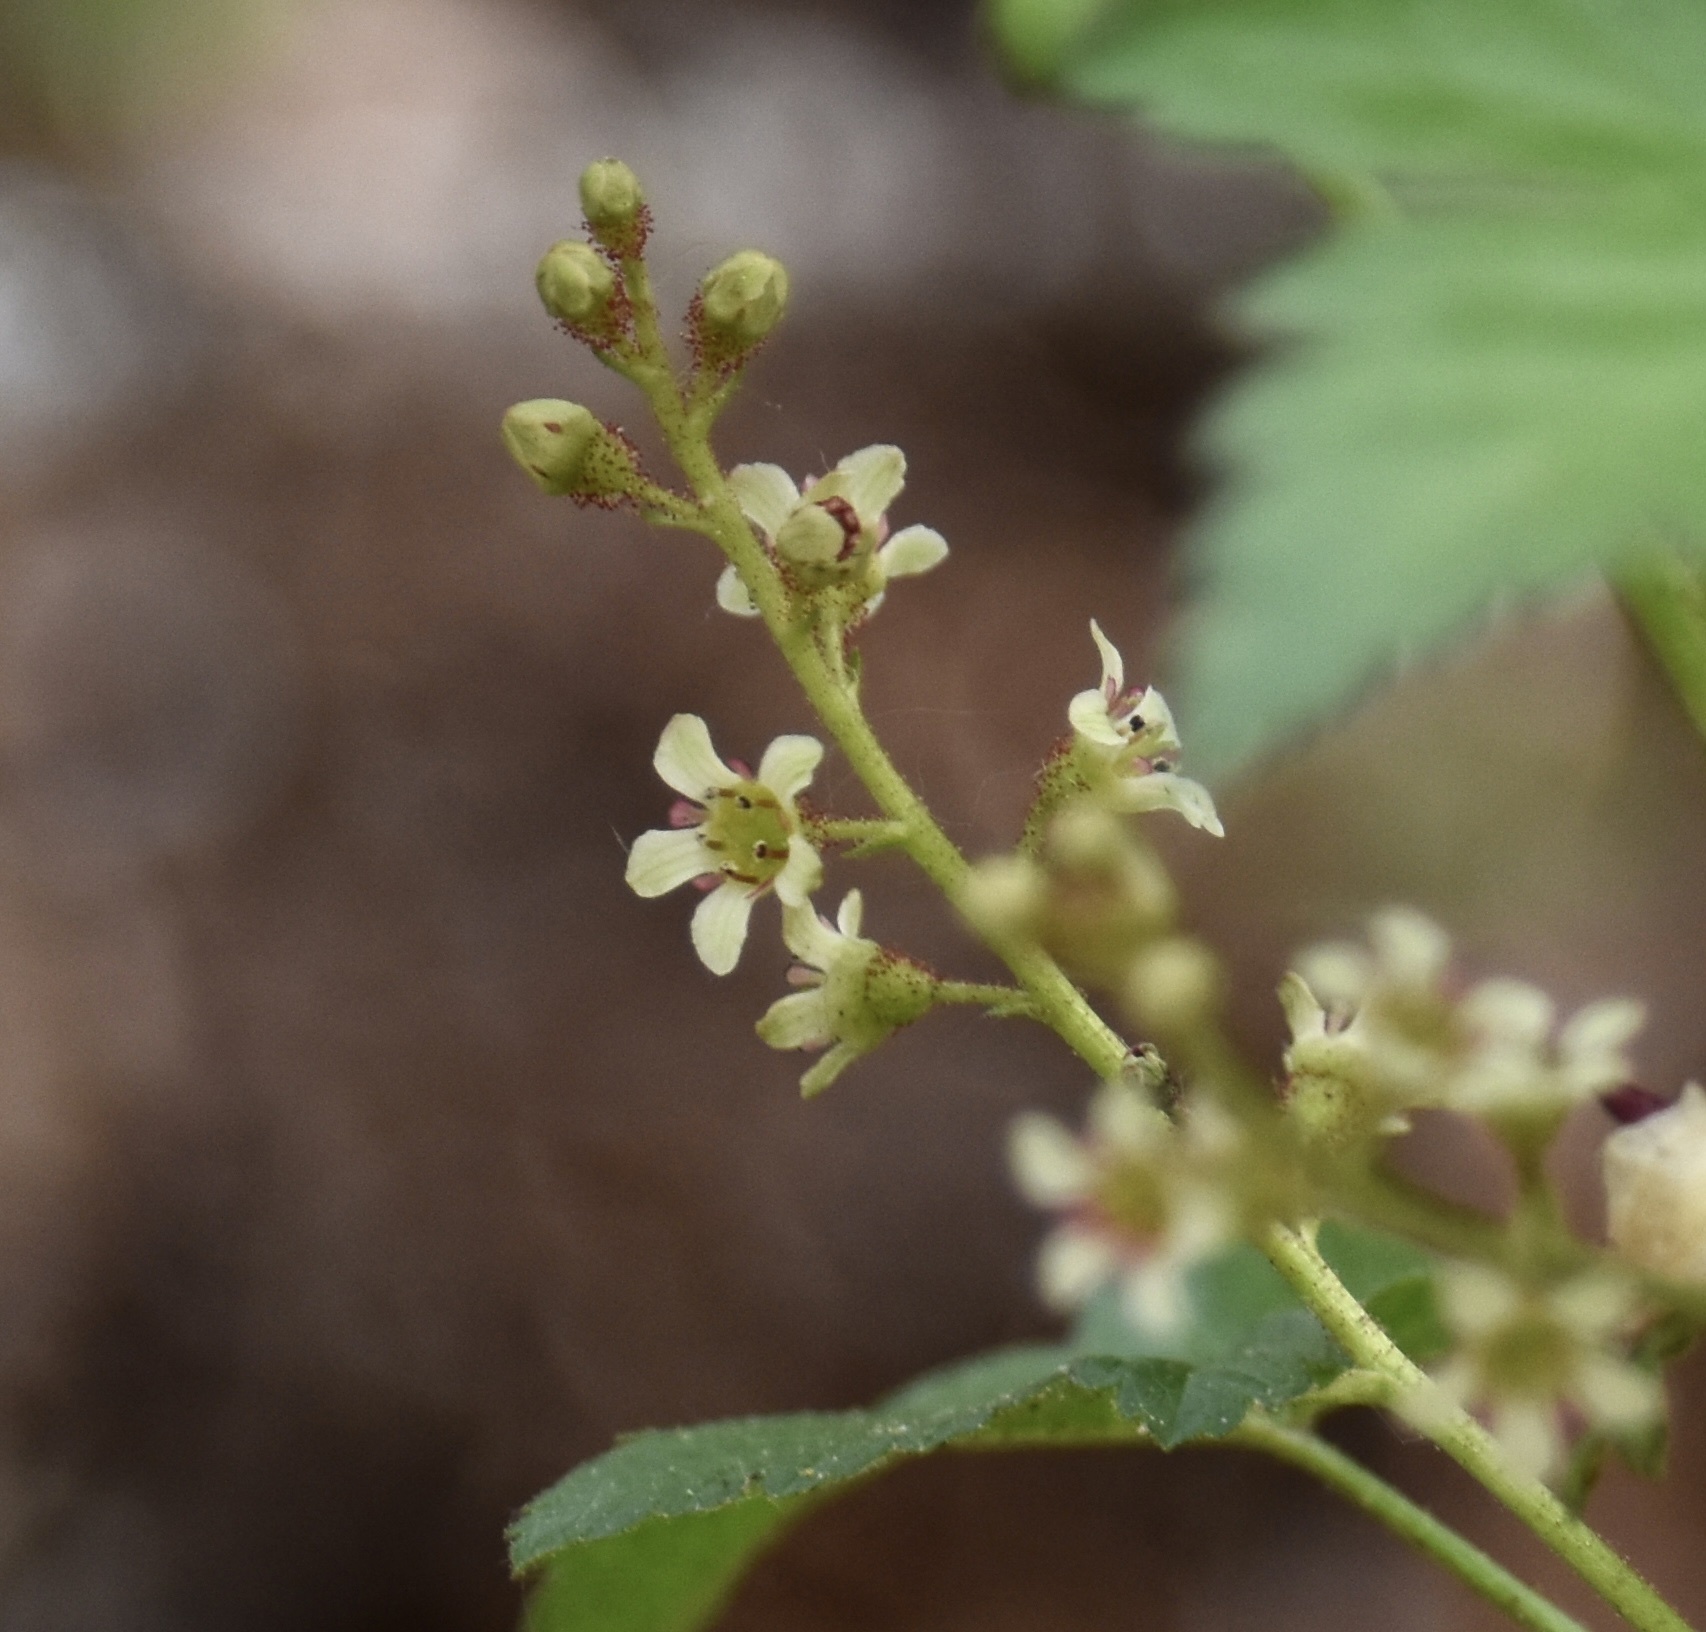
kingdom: Plantae
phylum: Tracheophyta
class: Magnoliopsida
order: Saxifragales
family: Grossulariaceae
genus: Ribes
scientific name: Ribes glandulosum
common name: Skunk currant
